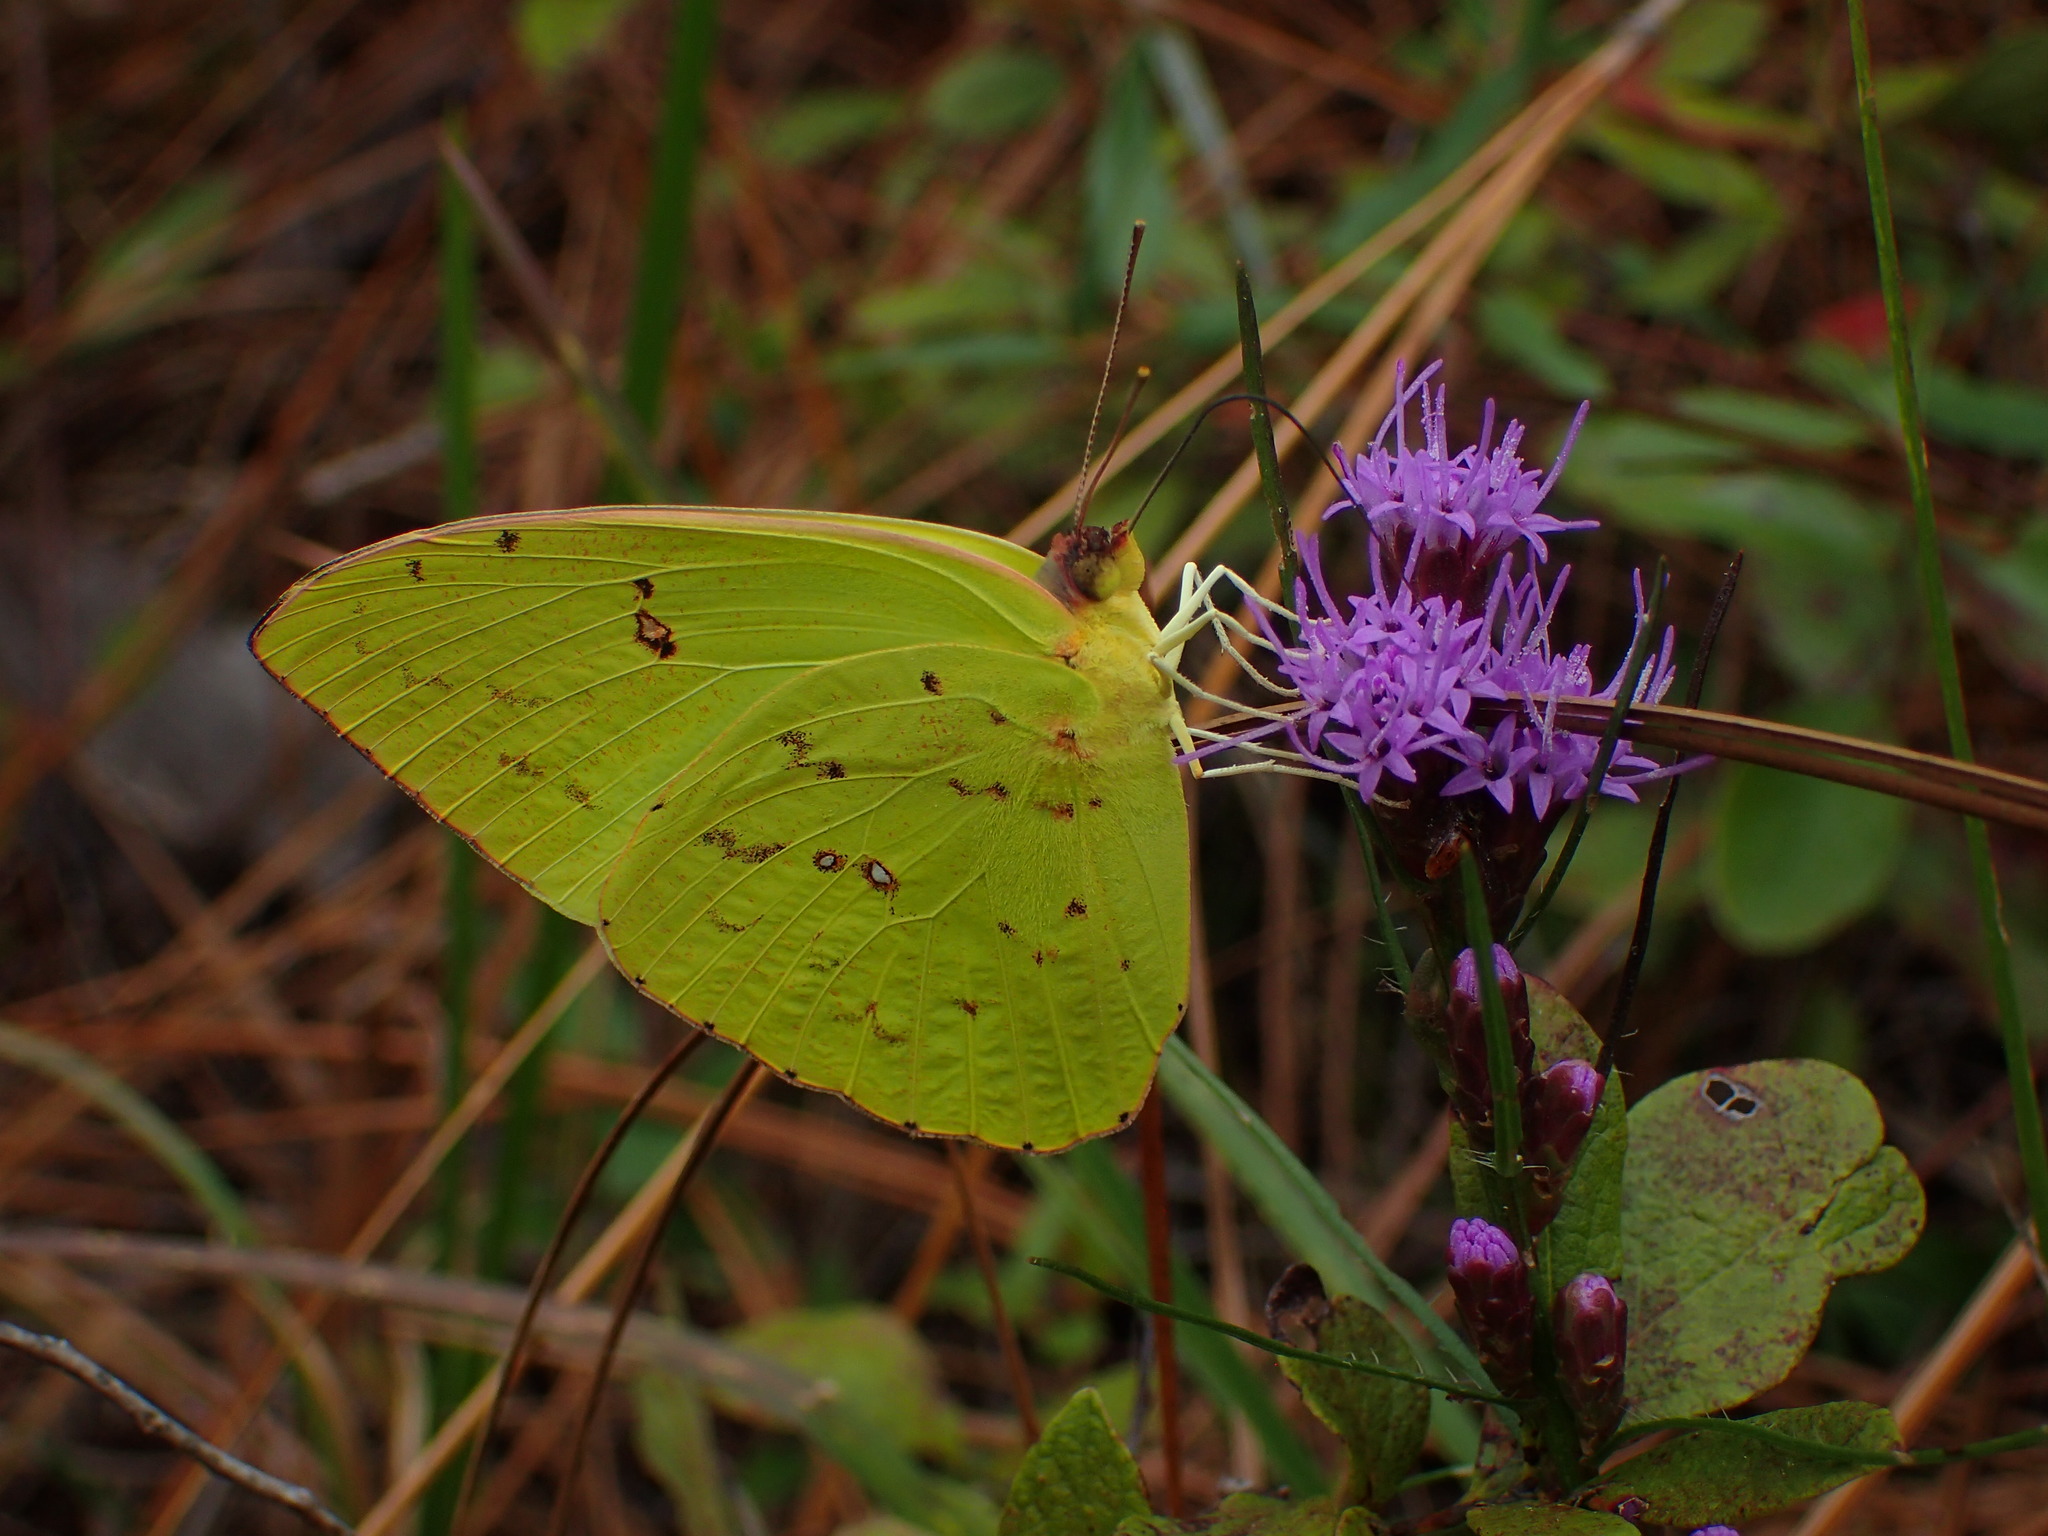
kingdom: Animalia
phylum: Arthropoda
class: Insecta
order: Lepidoptera
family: Pieridae
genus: Phoebis
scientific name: Phoebis sennae
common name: Cloudless sulphur
